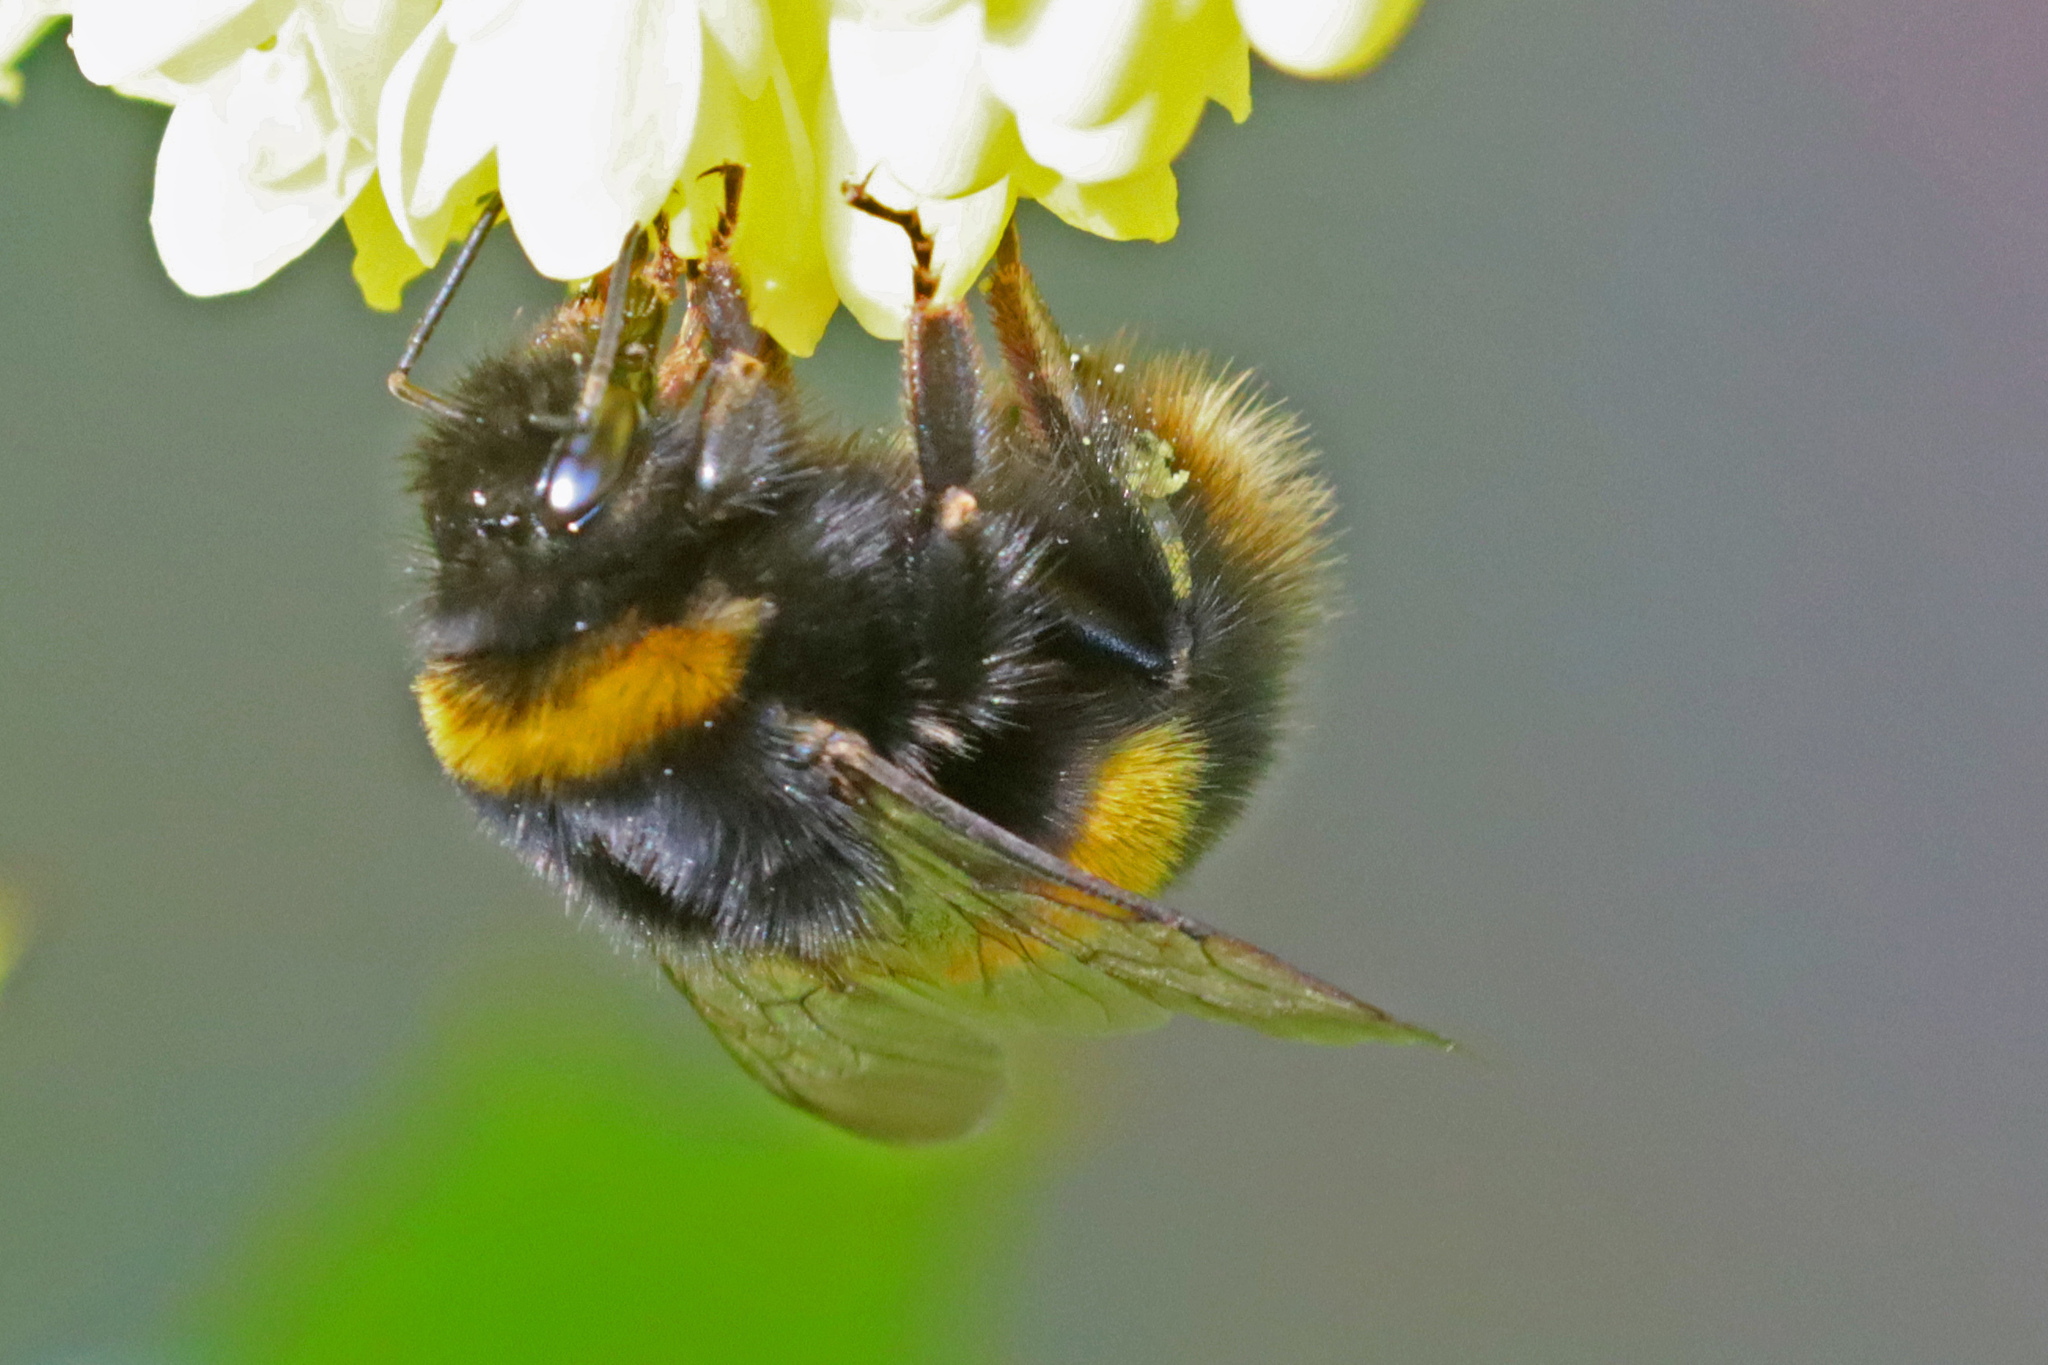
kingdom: Animalia
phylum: Arthropoda
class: Insecta
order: Hymenoptera
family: Apidae
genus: Bombus
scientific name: Bombus terrestris
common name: Buff-tailed bumblebee
